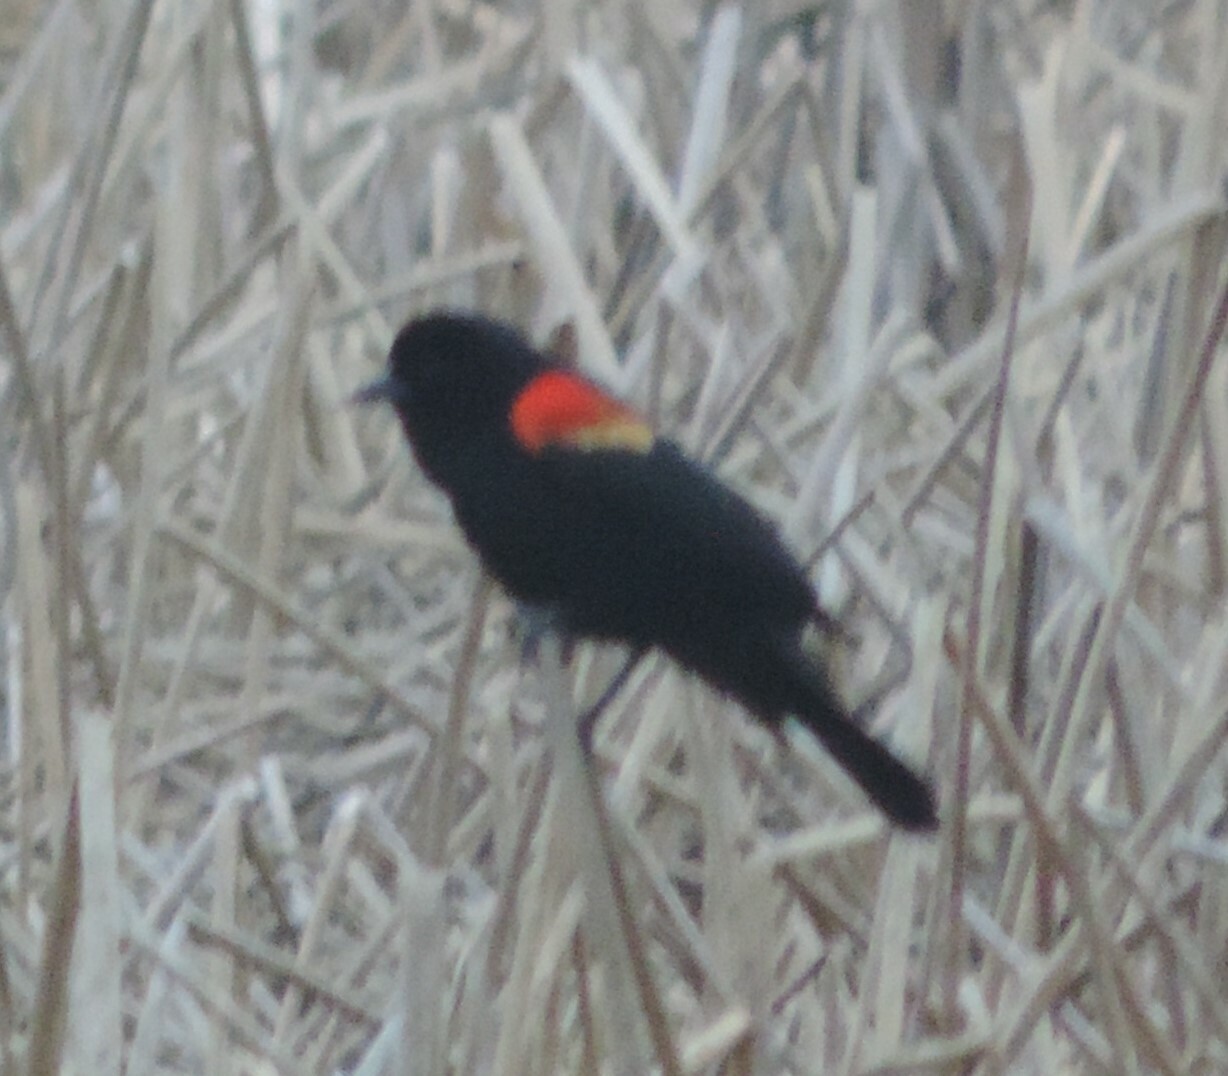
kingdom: Animalia
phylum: Chordata
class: Aves
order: Passeriformes
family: Icteridae
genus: Agelaius
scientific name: Agelaius phoeniceus
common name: Red-winged blackbird
